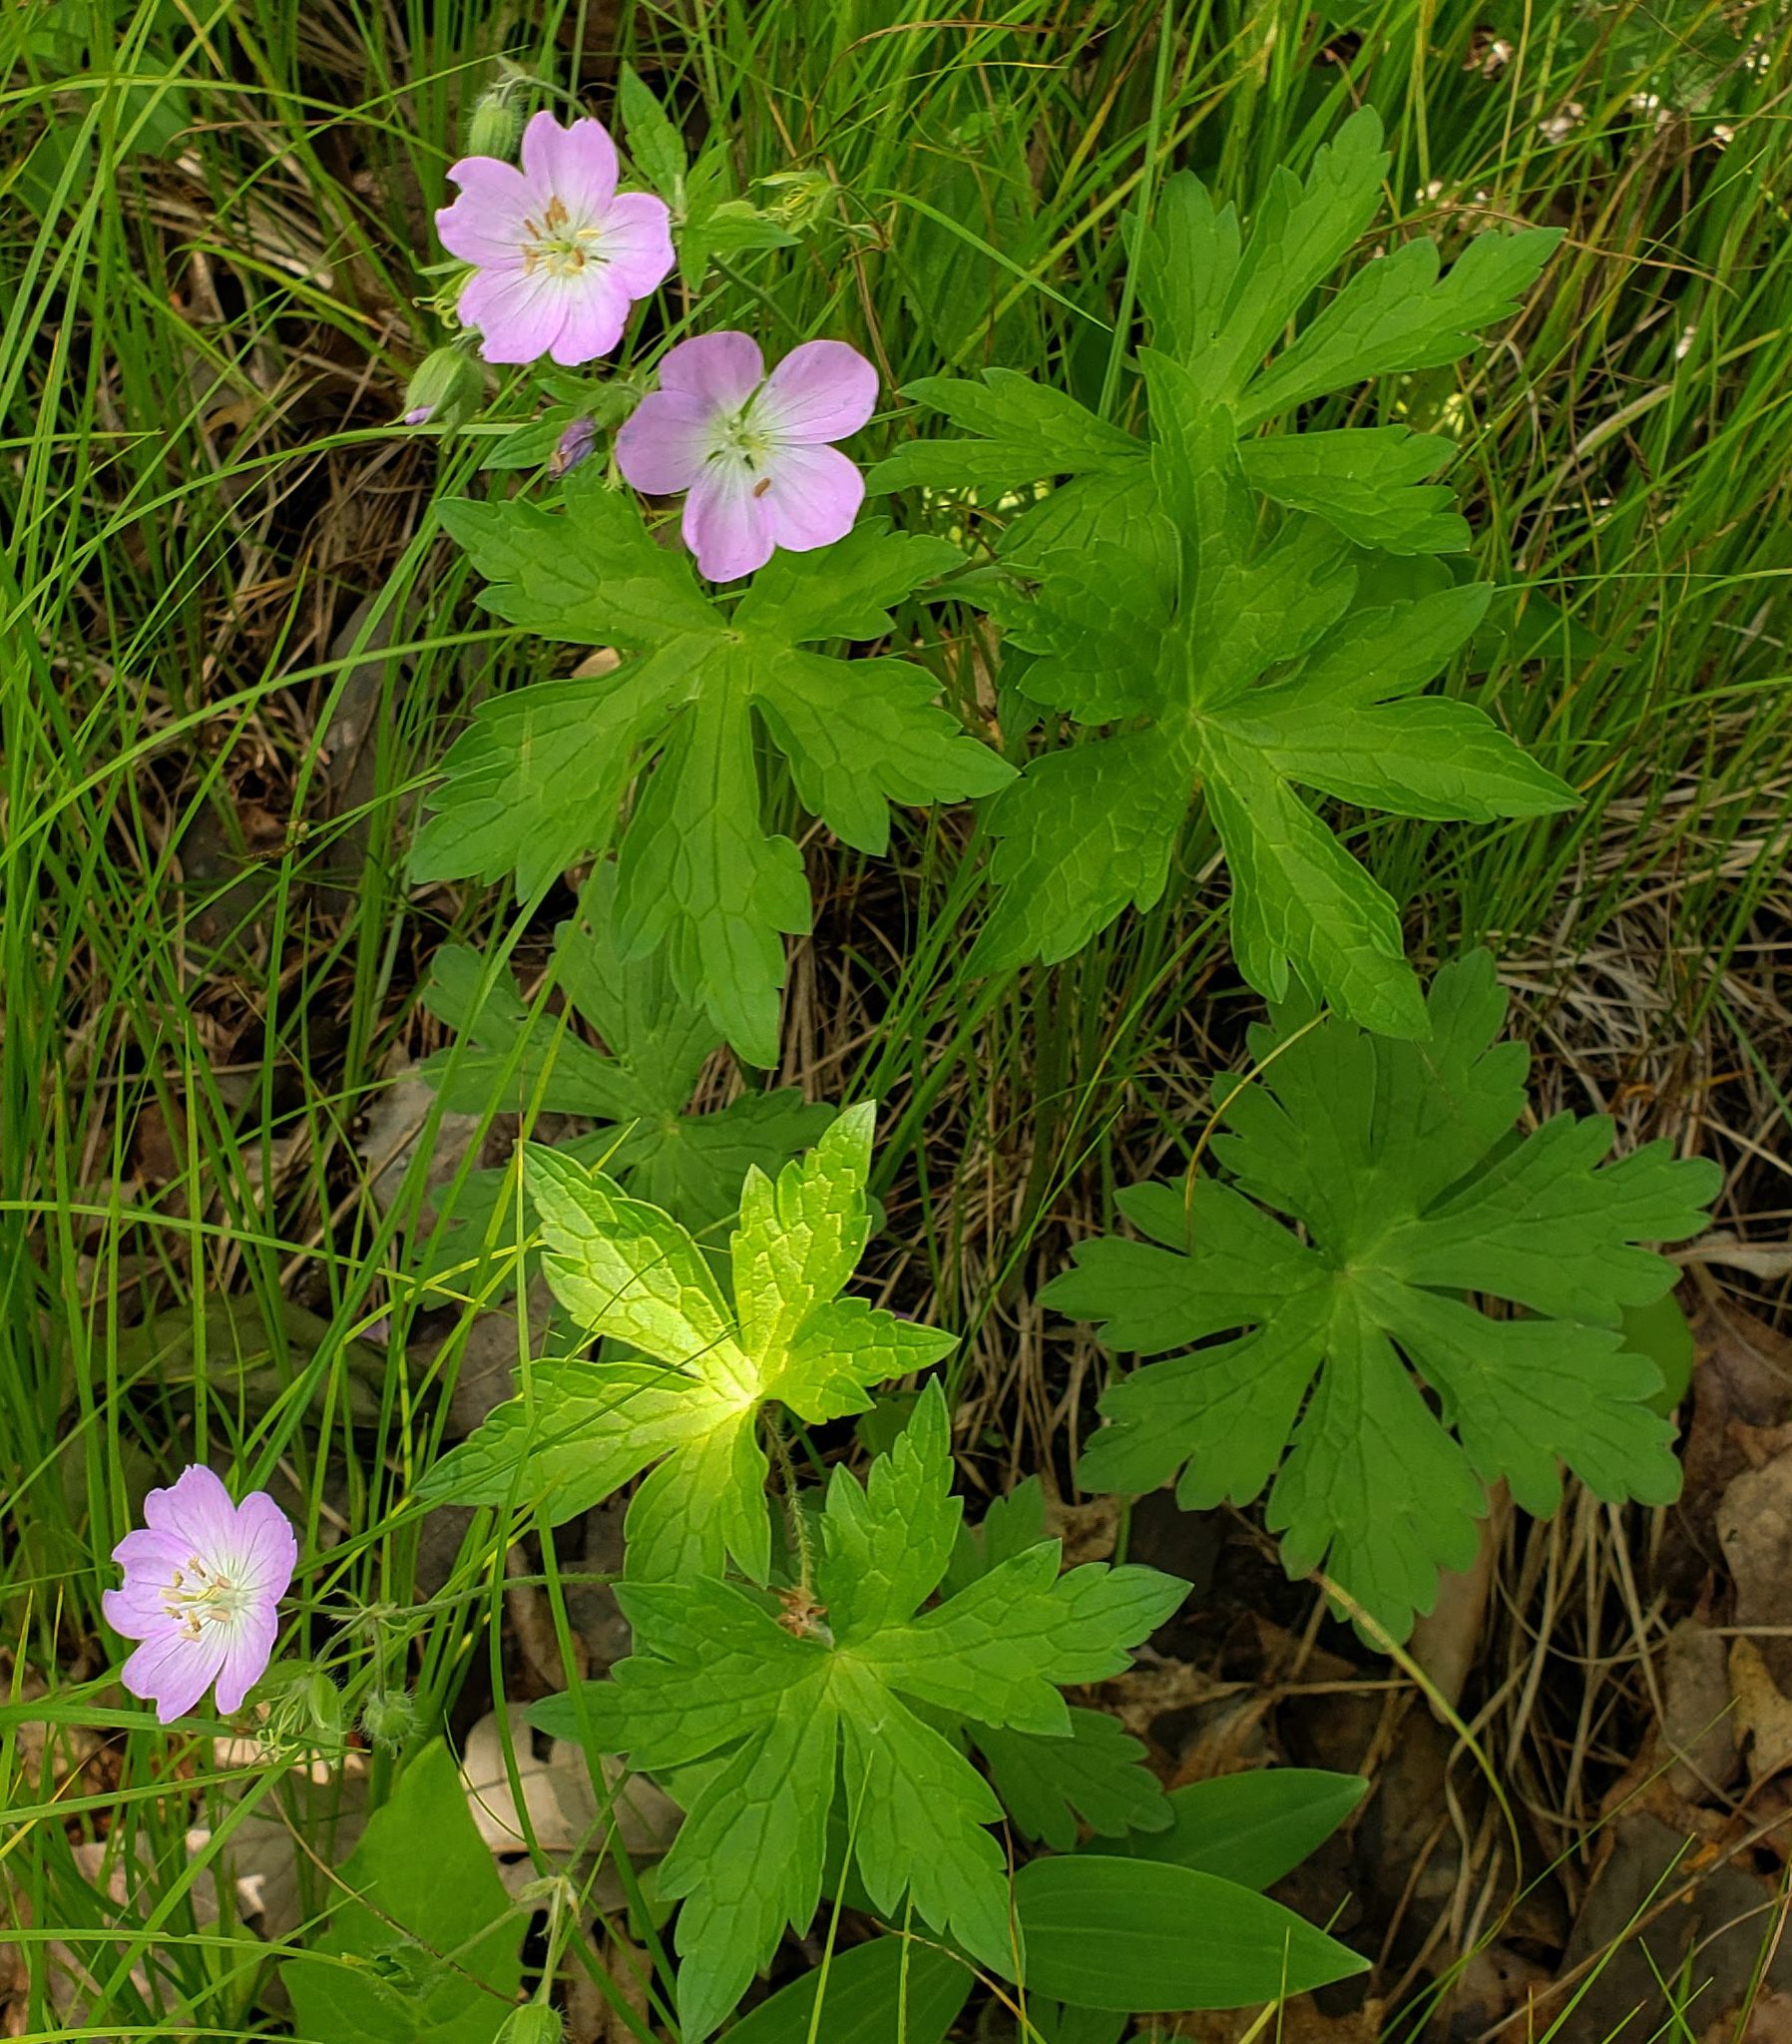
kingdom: Plantae
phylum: Tracheophyta
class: Magnoliopsida
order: Geraniales
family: Geraniaceae
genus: Geranium
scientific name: Geranium maculatum
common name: Spotted geranium
